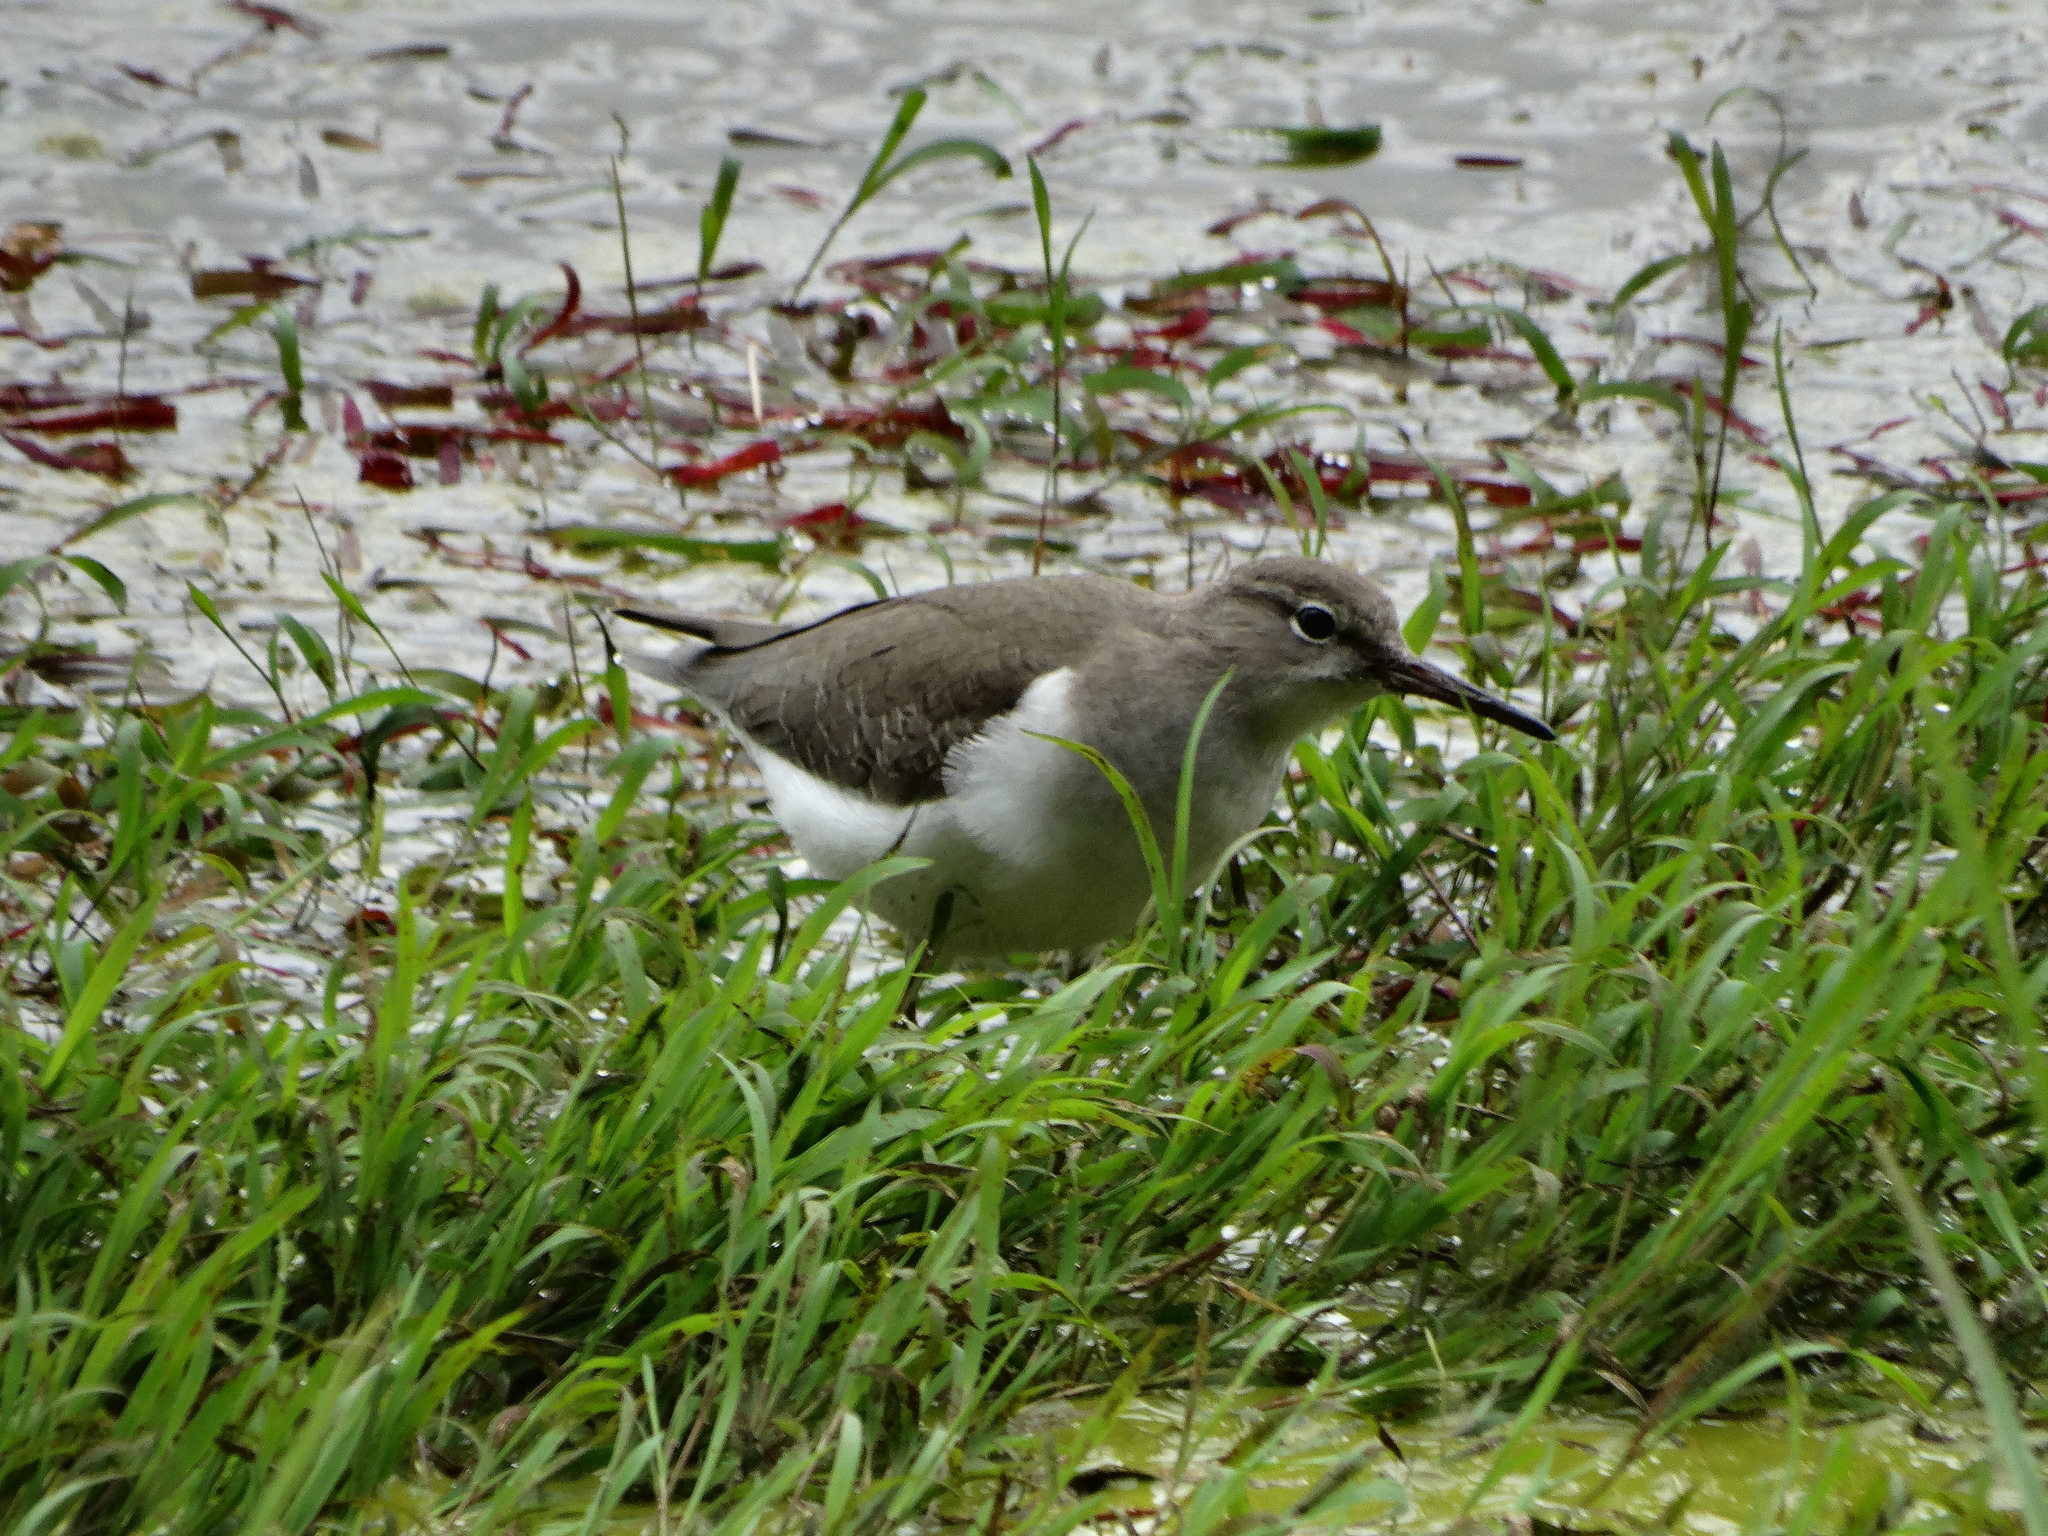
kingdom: Animalia
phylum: Chordata
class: Aves
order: Charadriiformes
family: Scolopacidae
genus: Actitis
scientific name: Actitis macularius
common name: Spotted sandpiper
